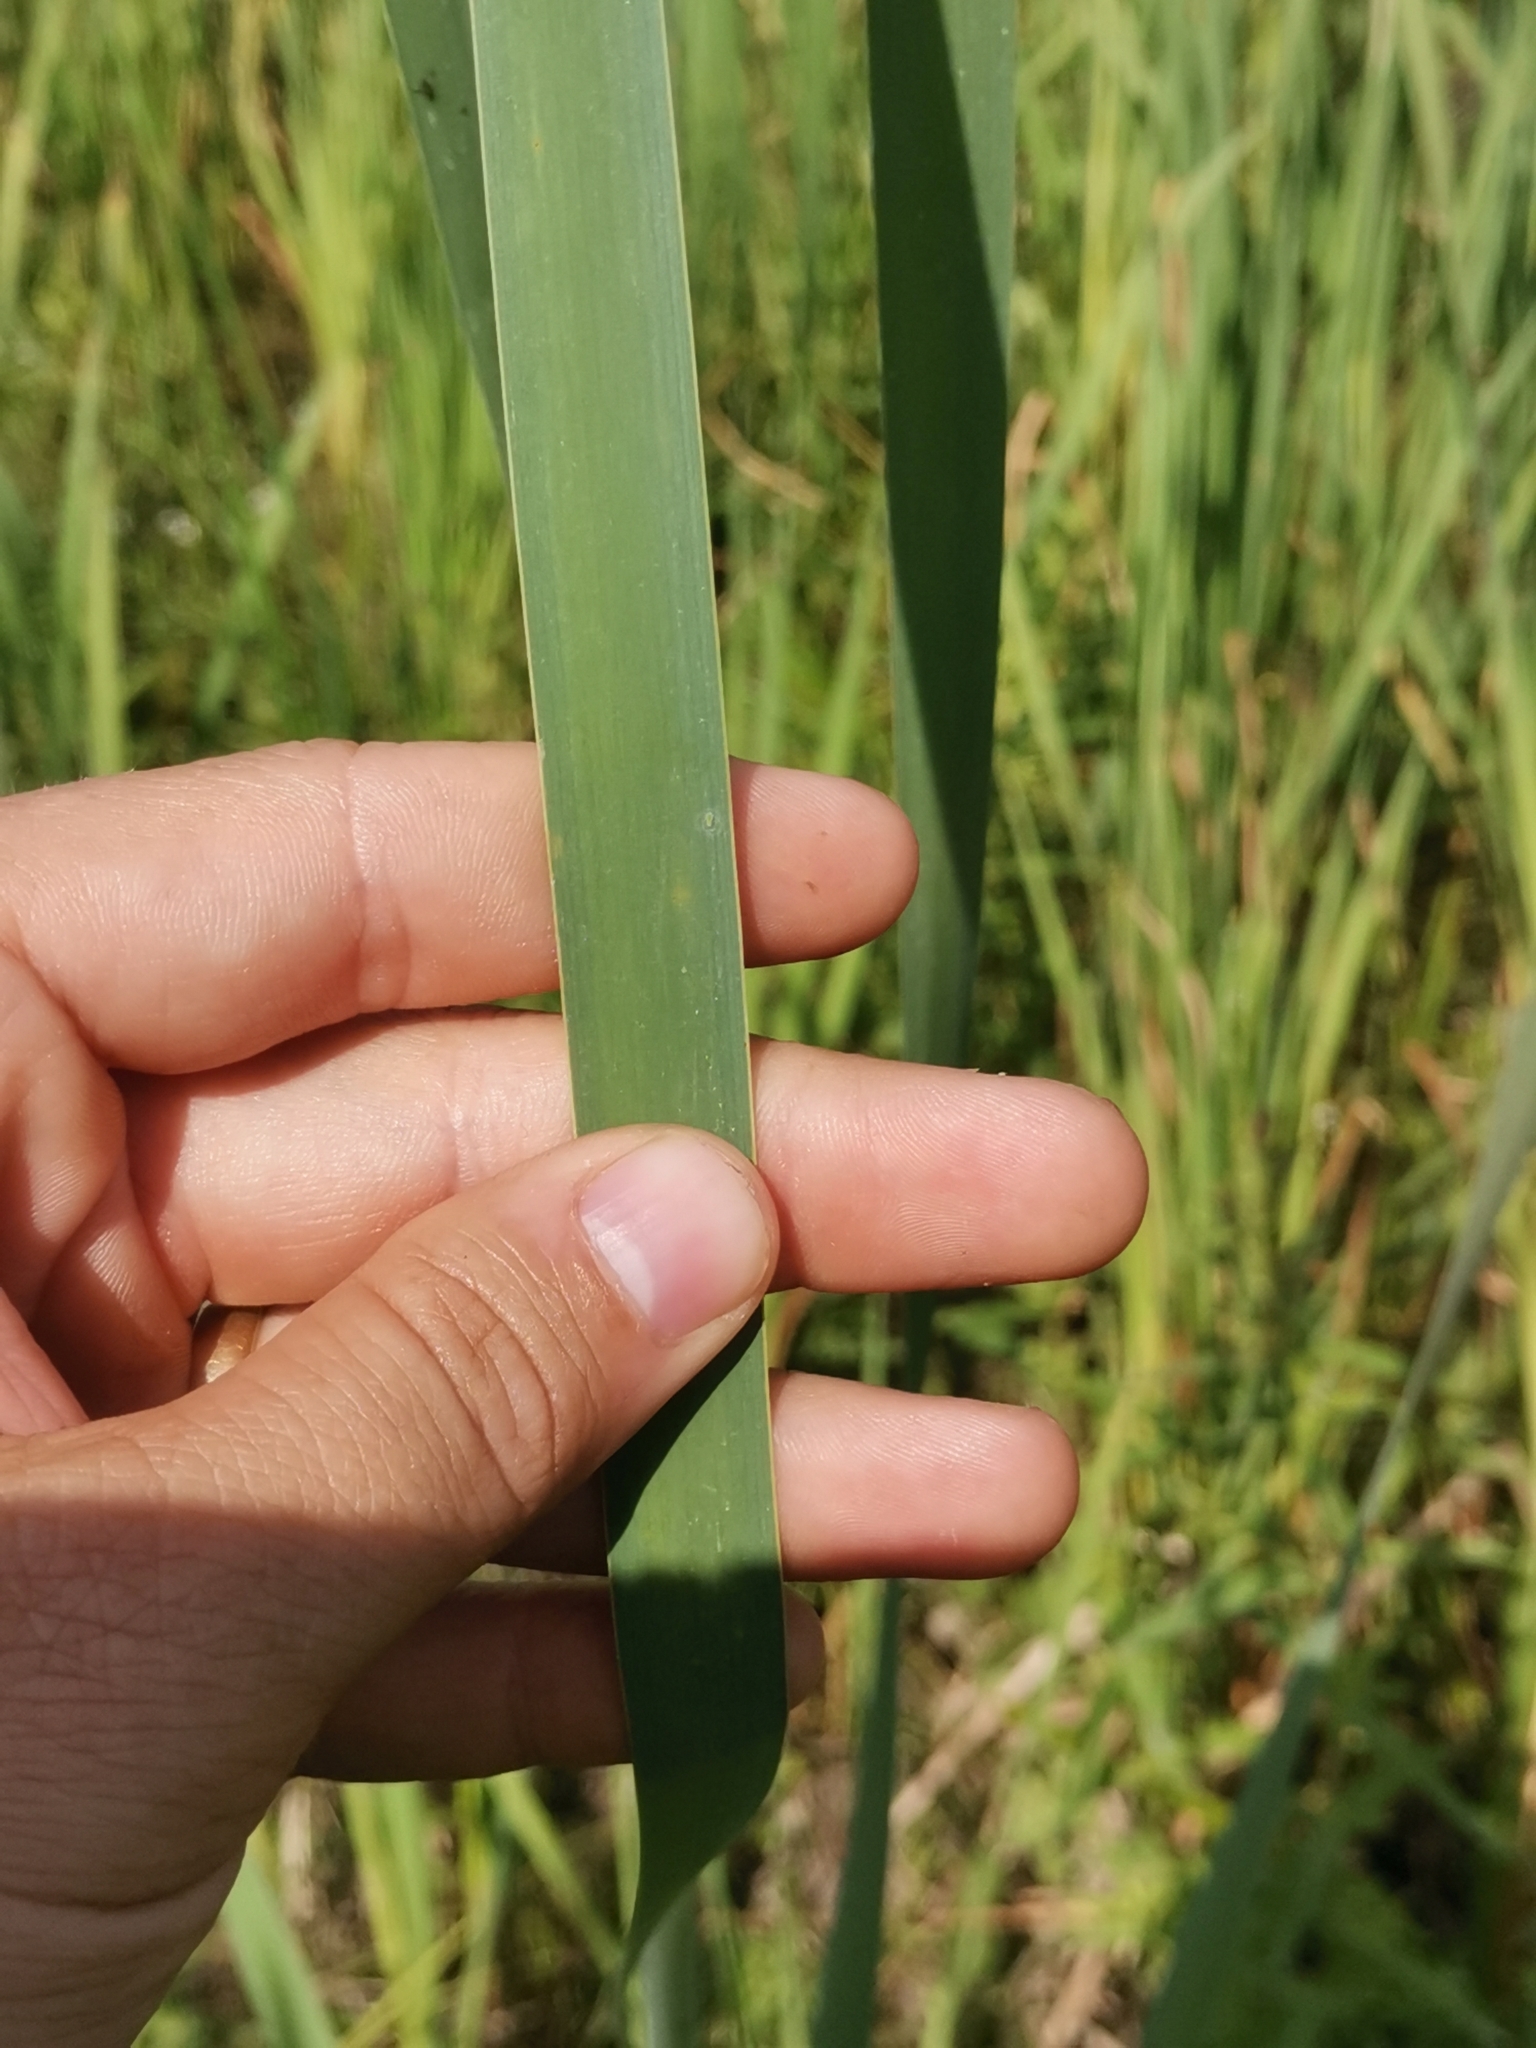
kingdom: Plantae
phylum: Tracheophyta
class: Liliopsida
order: Poales
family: Typhaceae
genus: Typha
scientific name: Typha latifolia
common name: Broadleaf cattail
